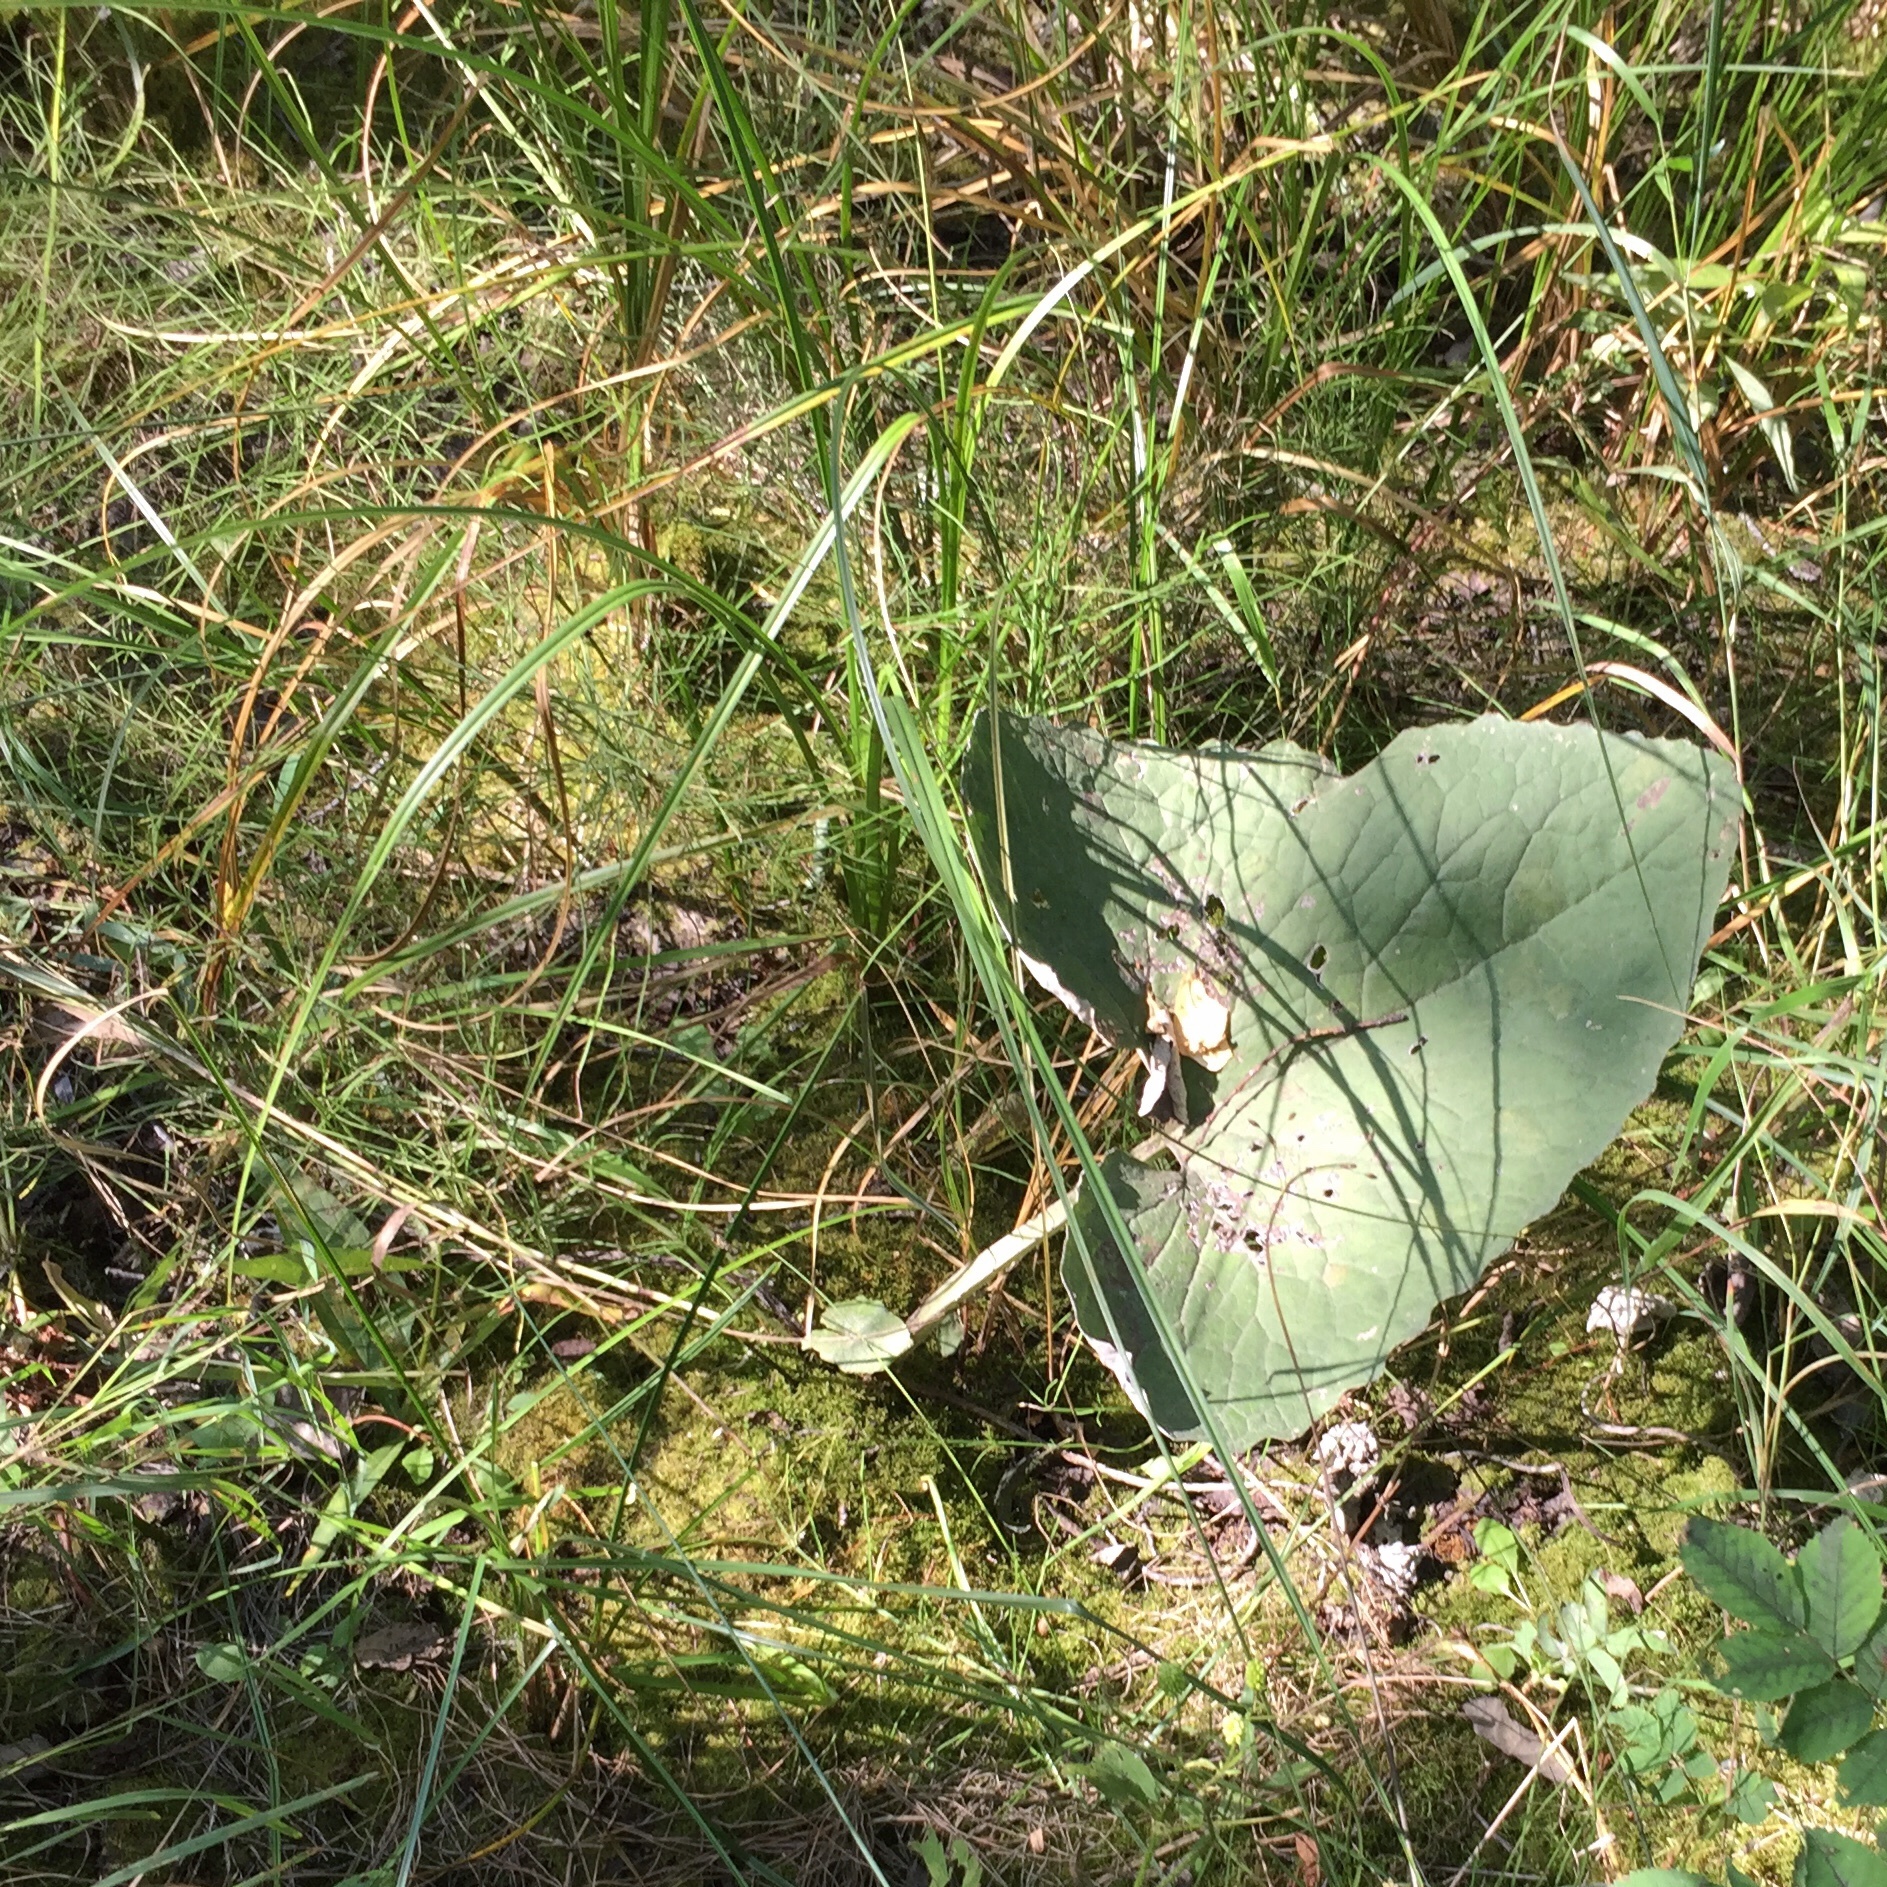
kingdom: Plantae
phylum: Tracheophyta
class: Magnoliopsida
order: Asterales
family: Asteraceae
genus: Petasites
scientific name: Petasites frigidus
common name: Arctic butterbur
